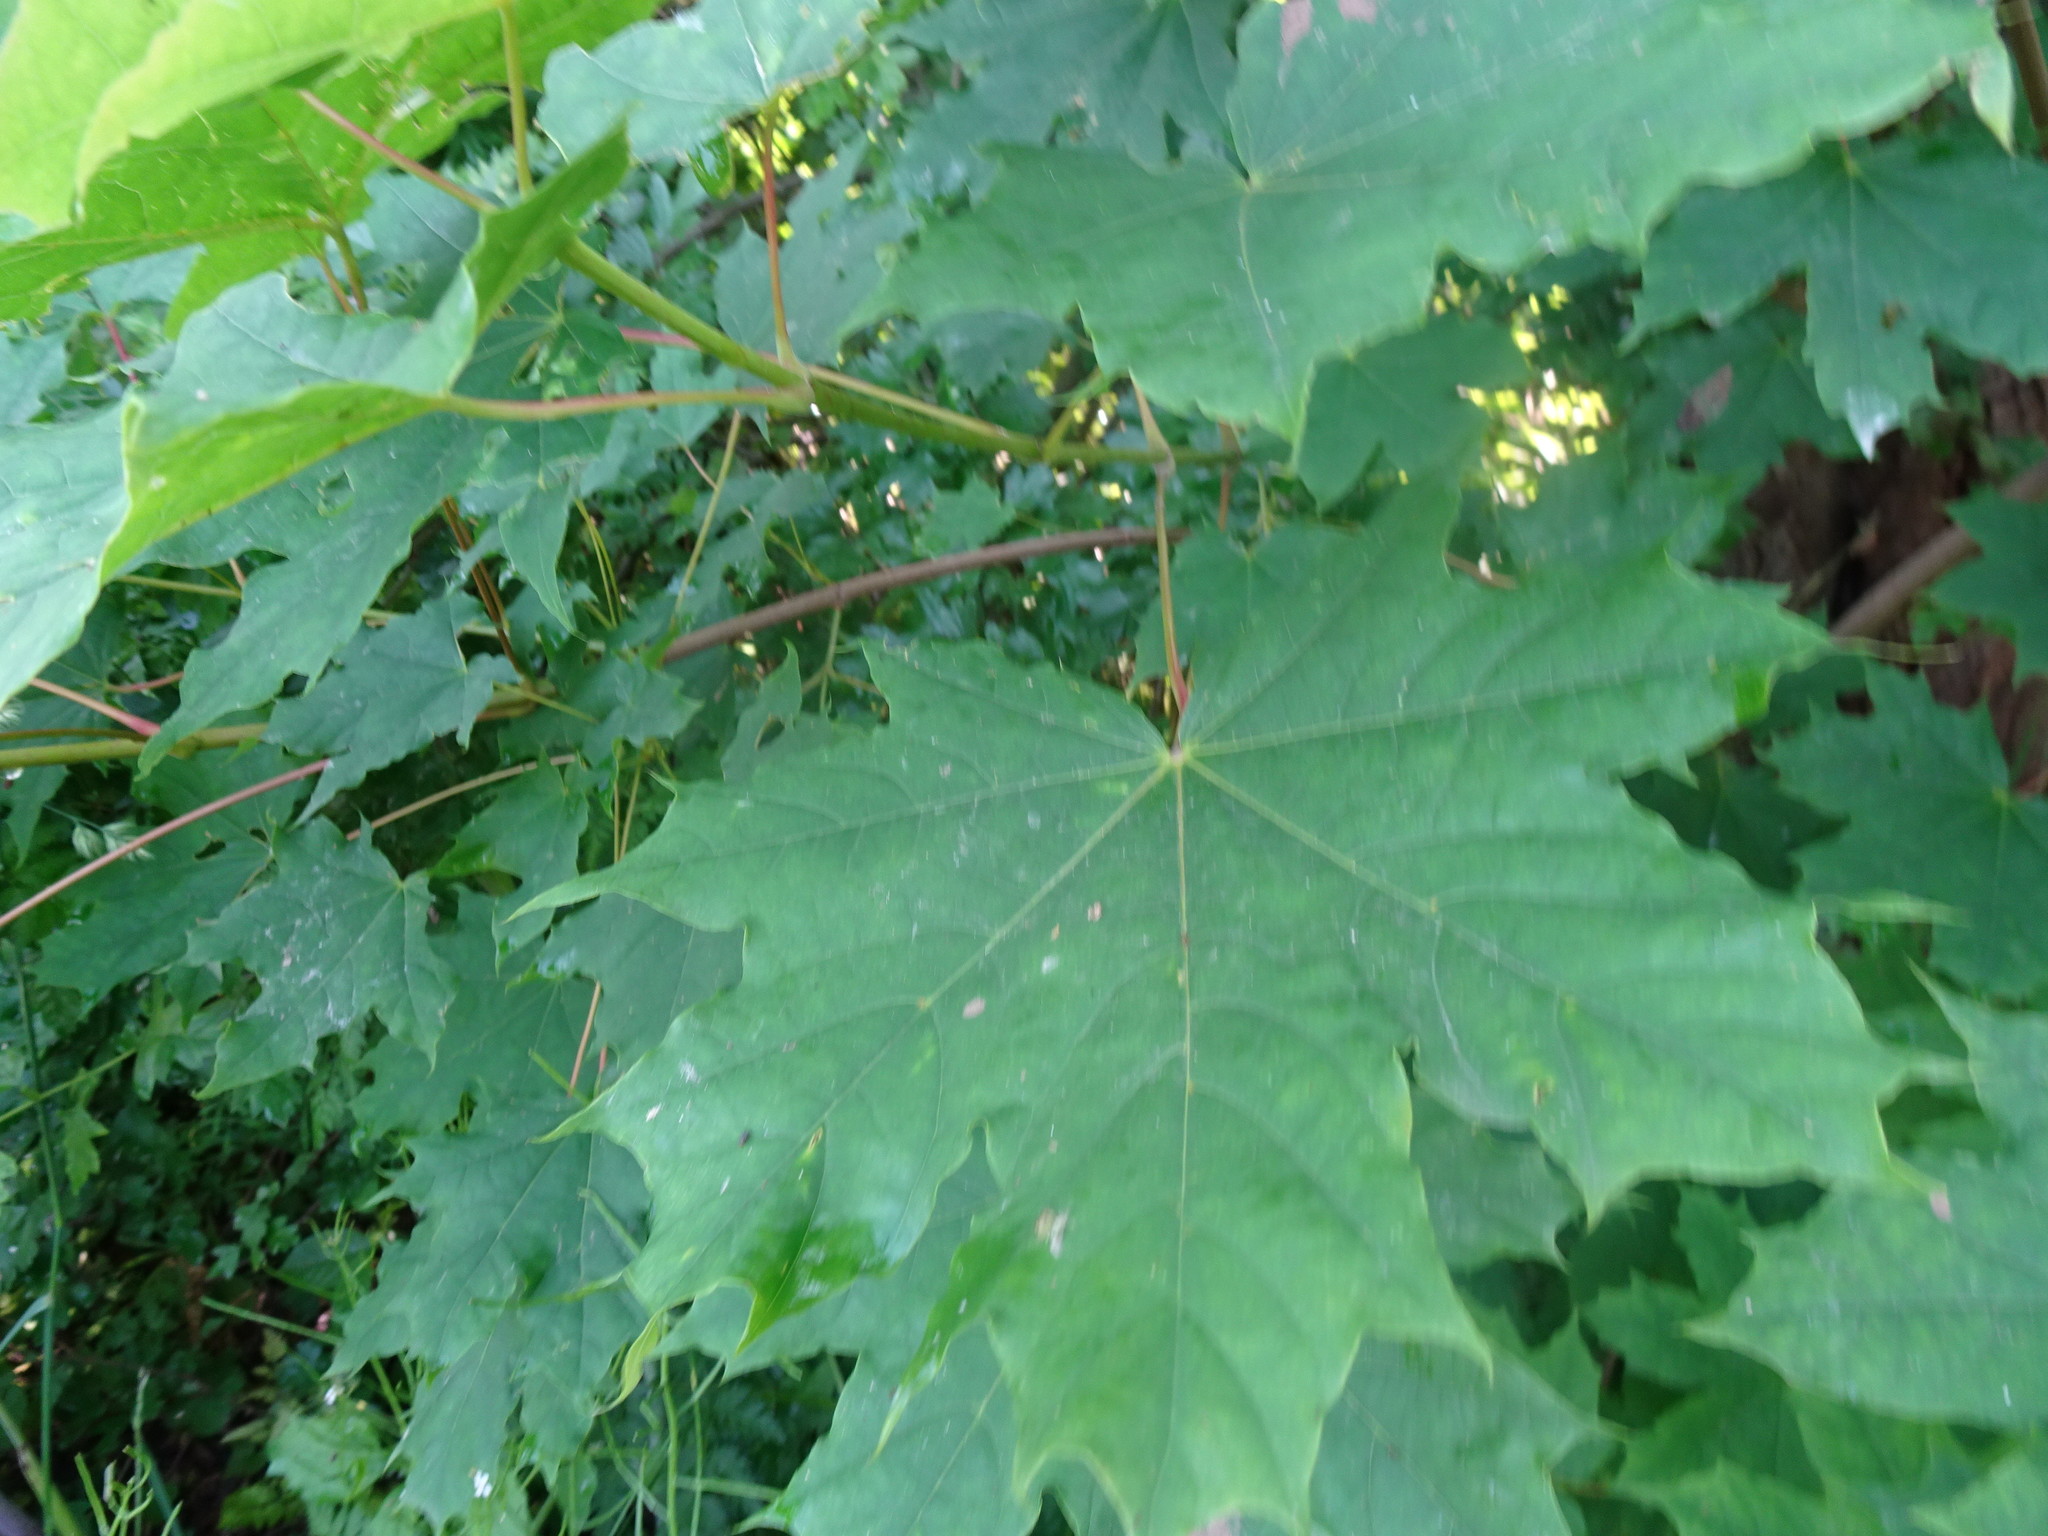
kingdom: Plantae
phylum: Tracheophyta
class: Magnoliopsida
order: Sapindales
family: Sapindaceae
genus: Acer
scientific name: Acer platanoides
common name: Norway maple
